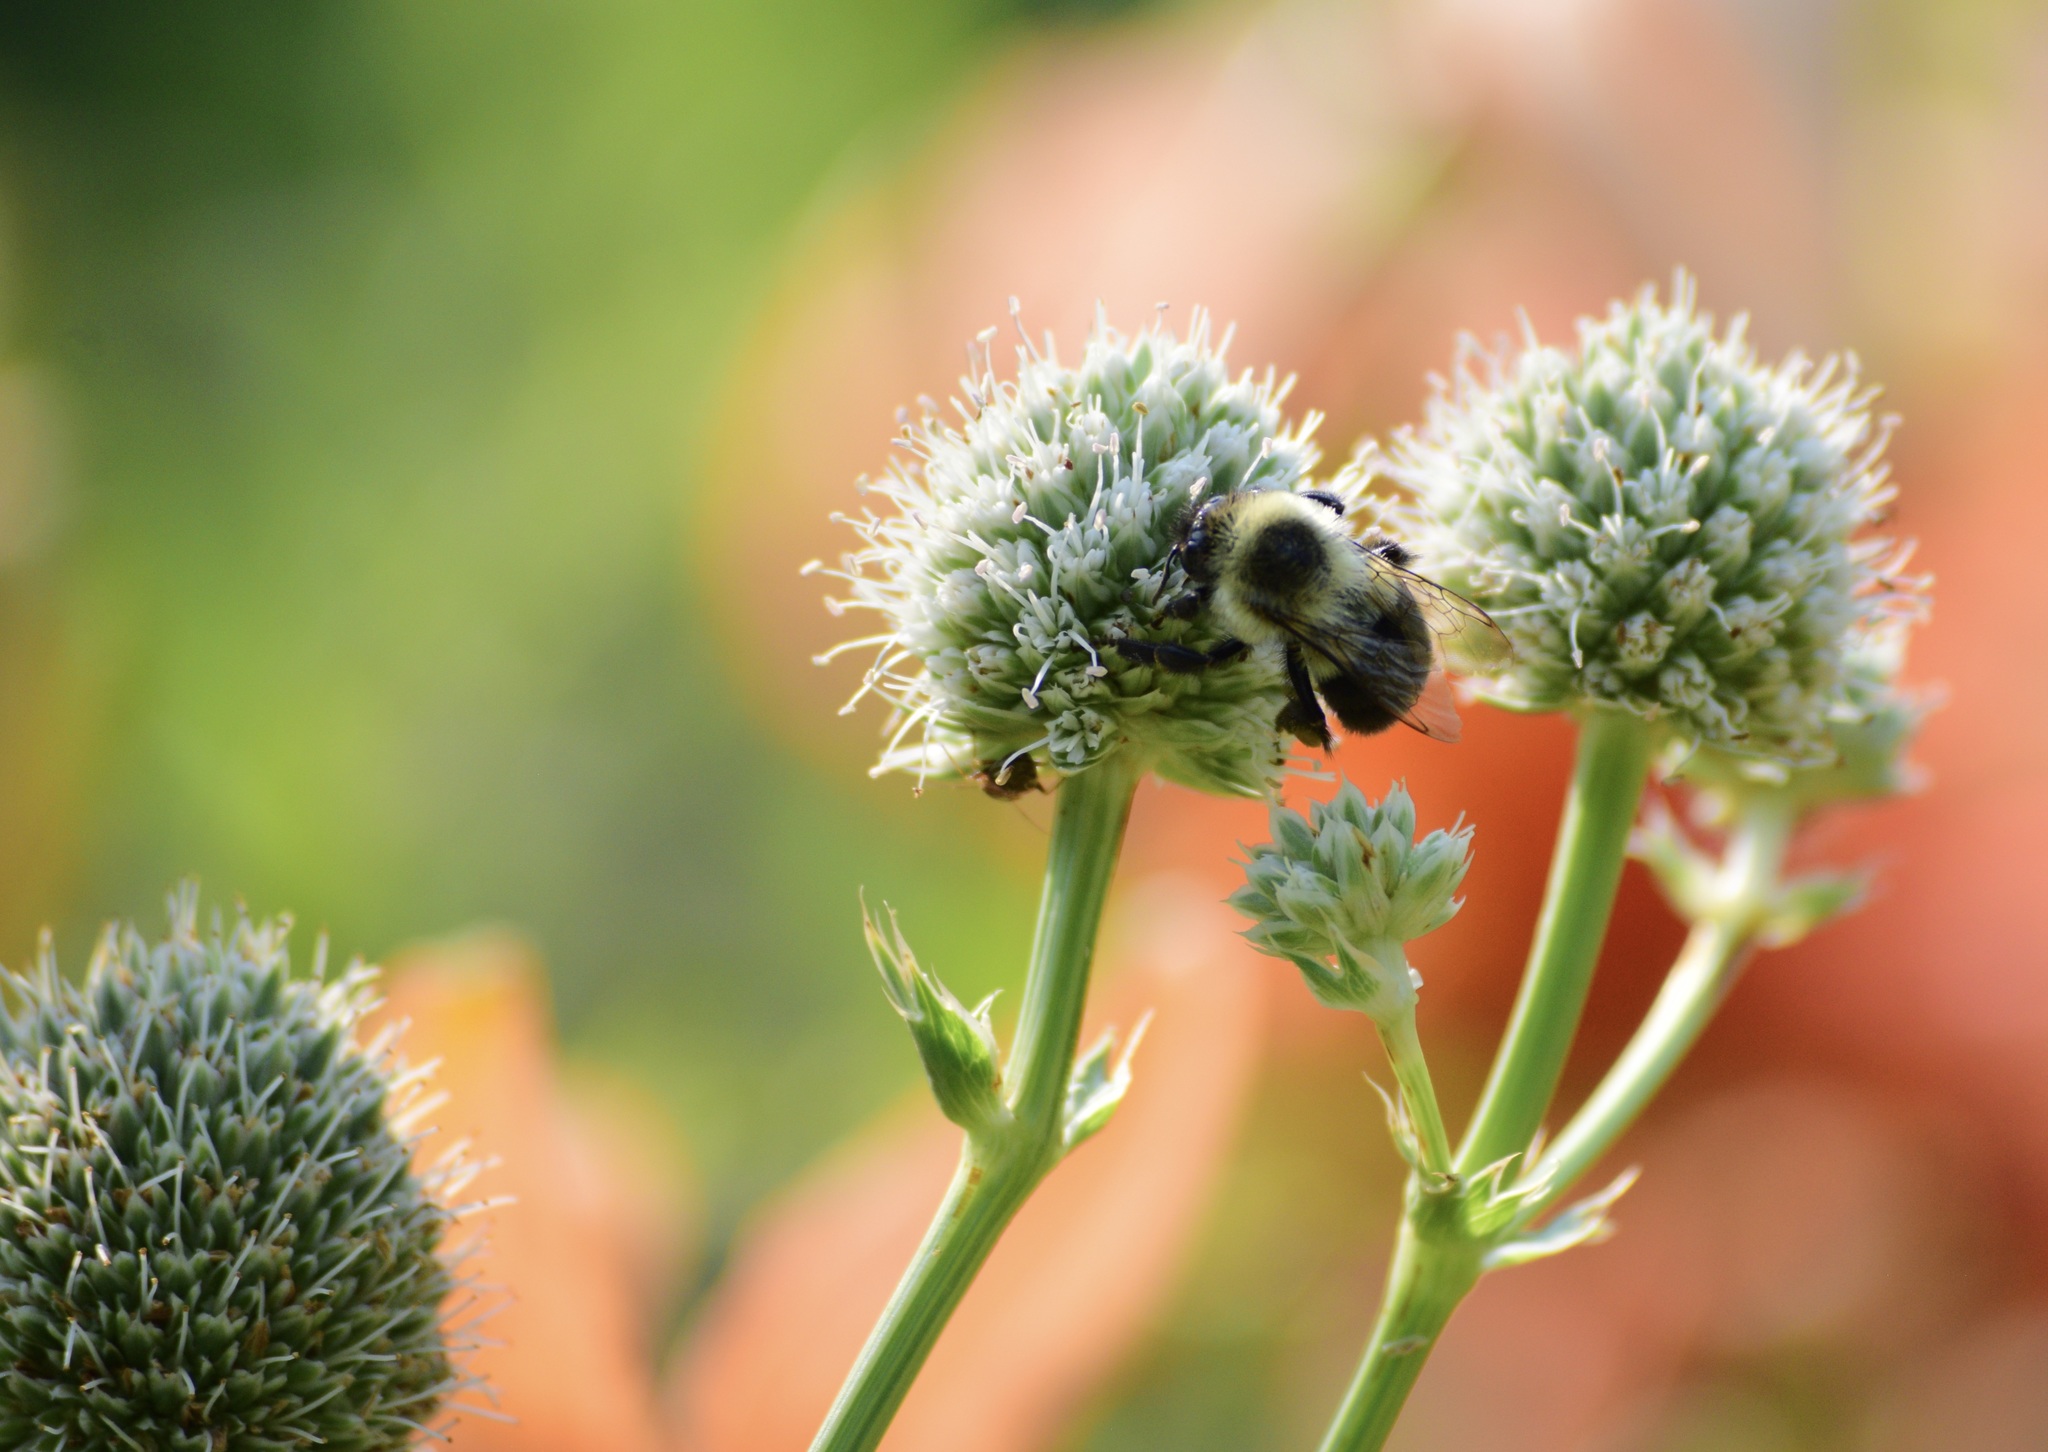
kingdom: Animalia
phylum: Arthropoda
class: Insecta
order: Hymenoptera
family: Apidae
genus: Bombus
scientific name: Bombus impatiens
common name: Common eastern bumble bee
